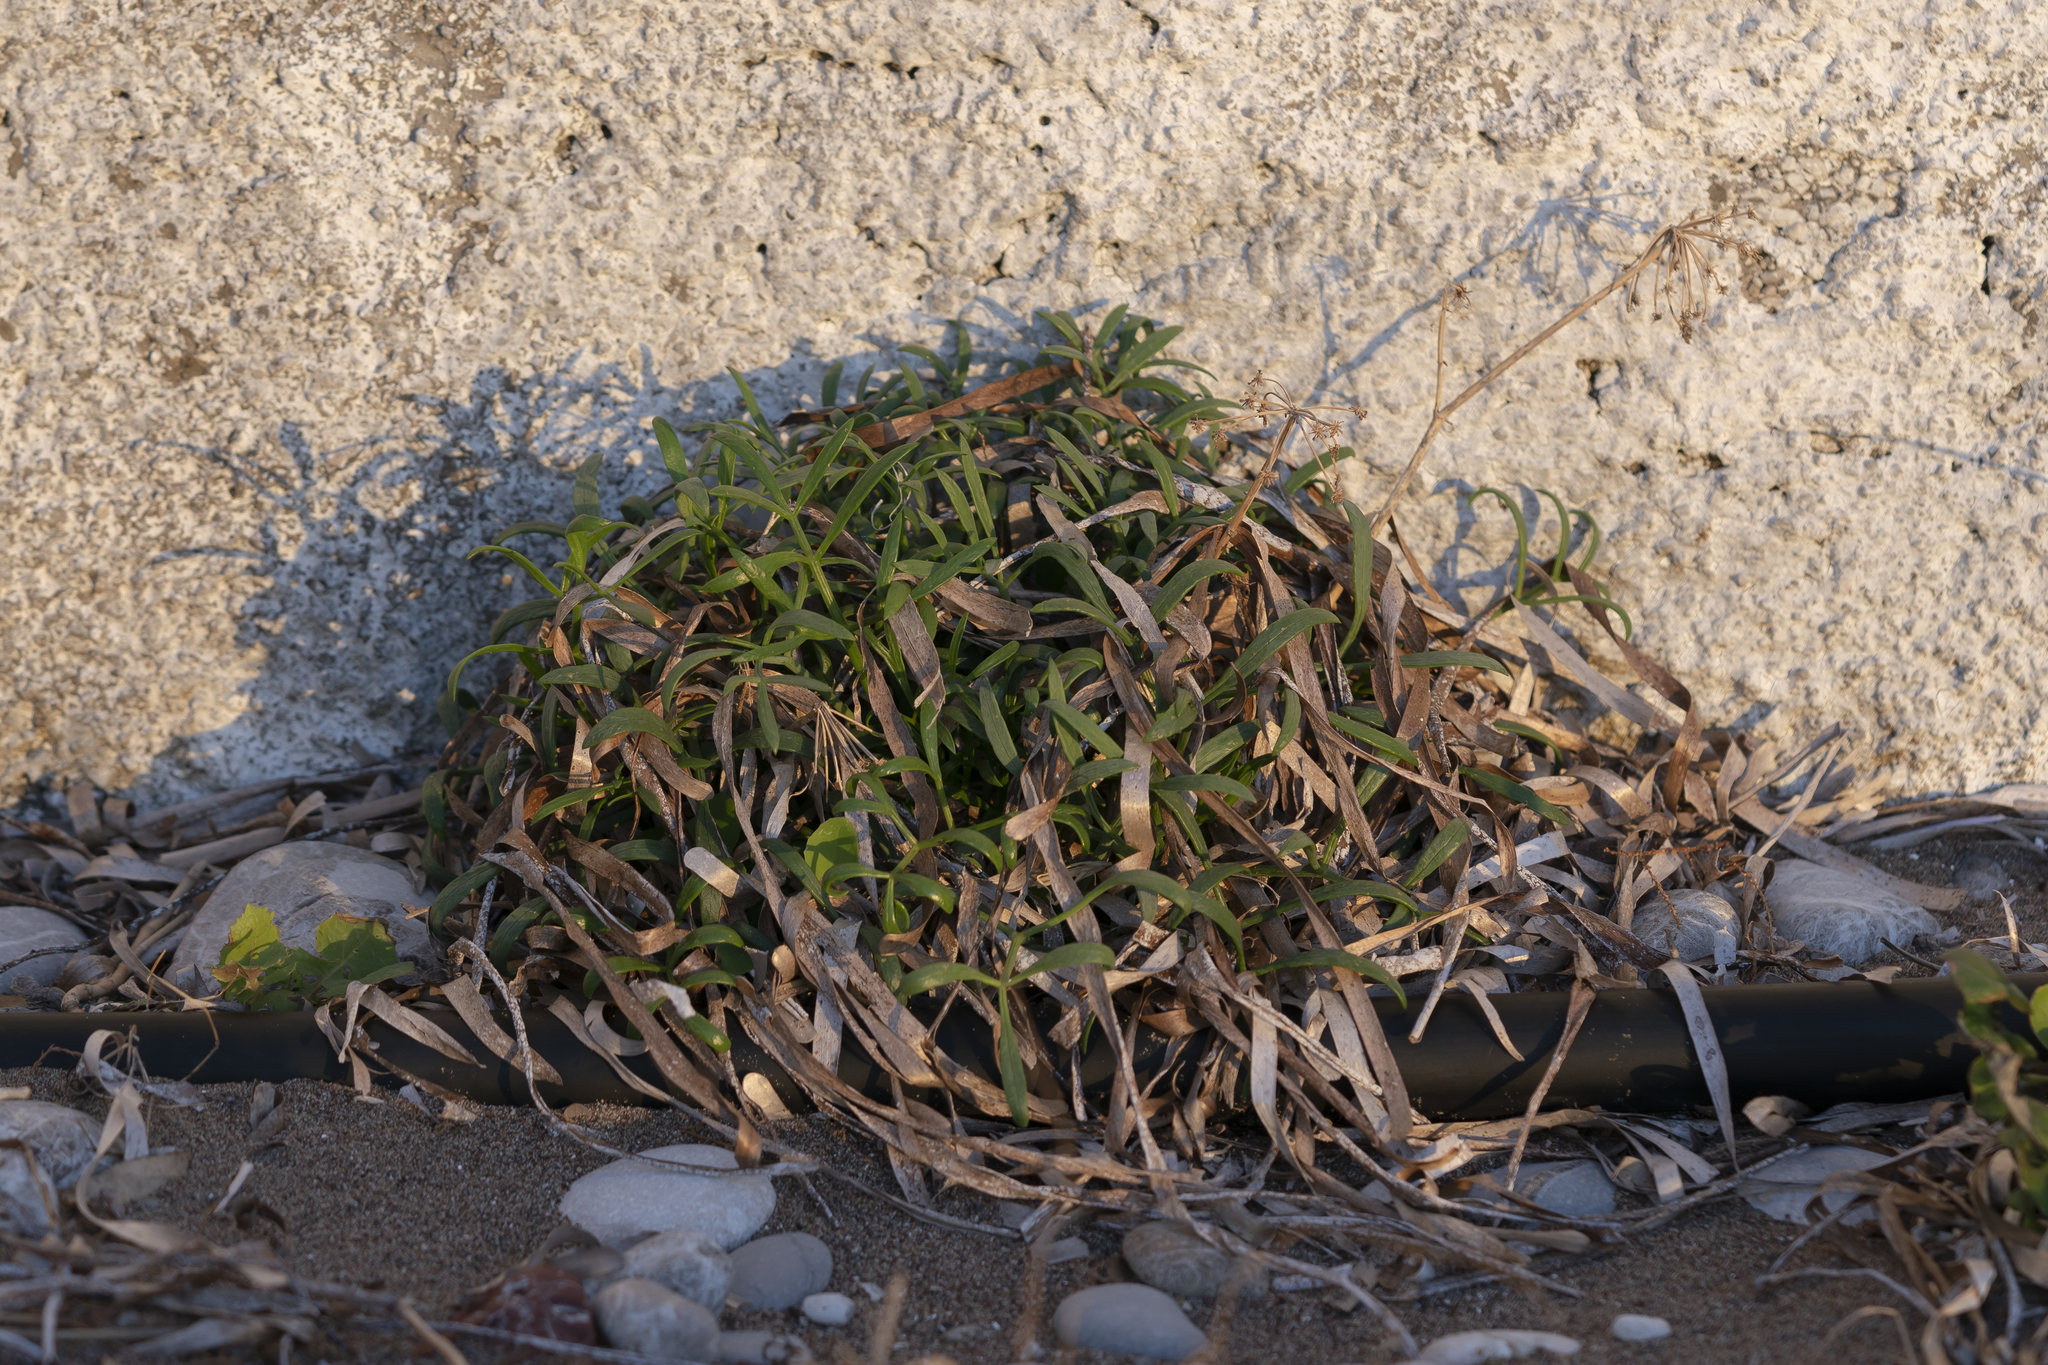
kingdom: Plantae
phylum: Tracheophyta
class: Magnoliopsida
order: Apiales
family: Apiaceae
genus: Crithmum
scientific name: Crithmum maritimum
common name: Rock samphire
